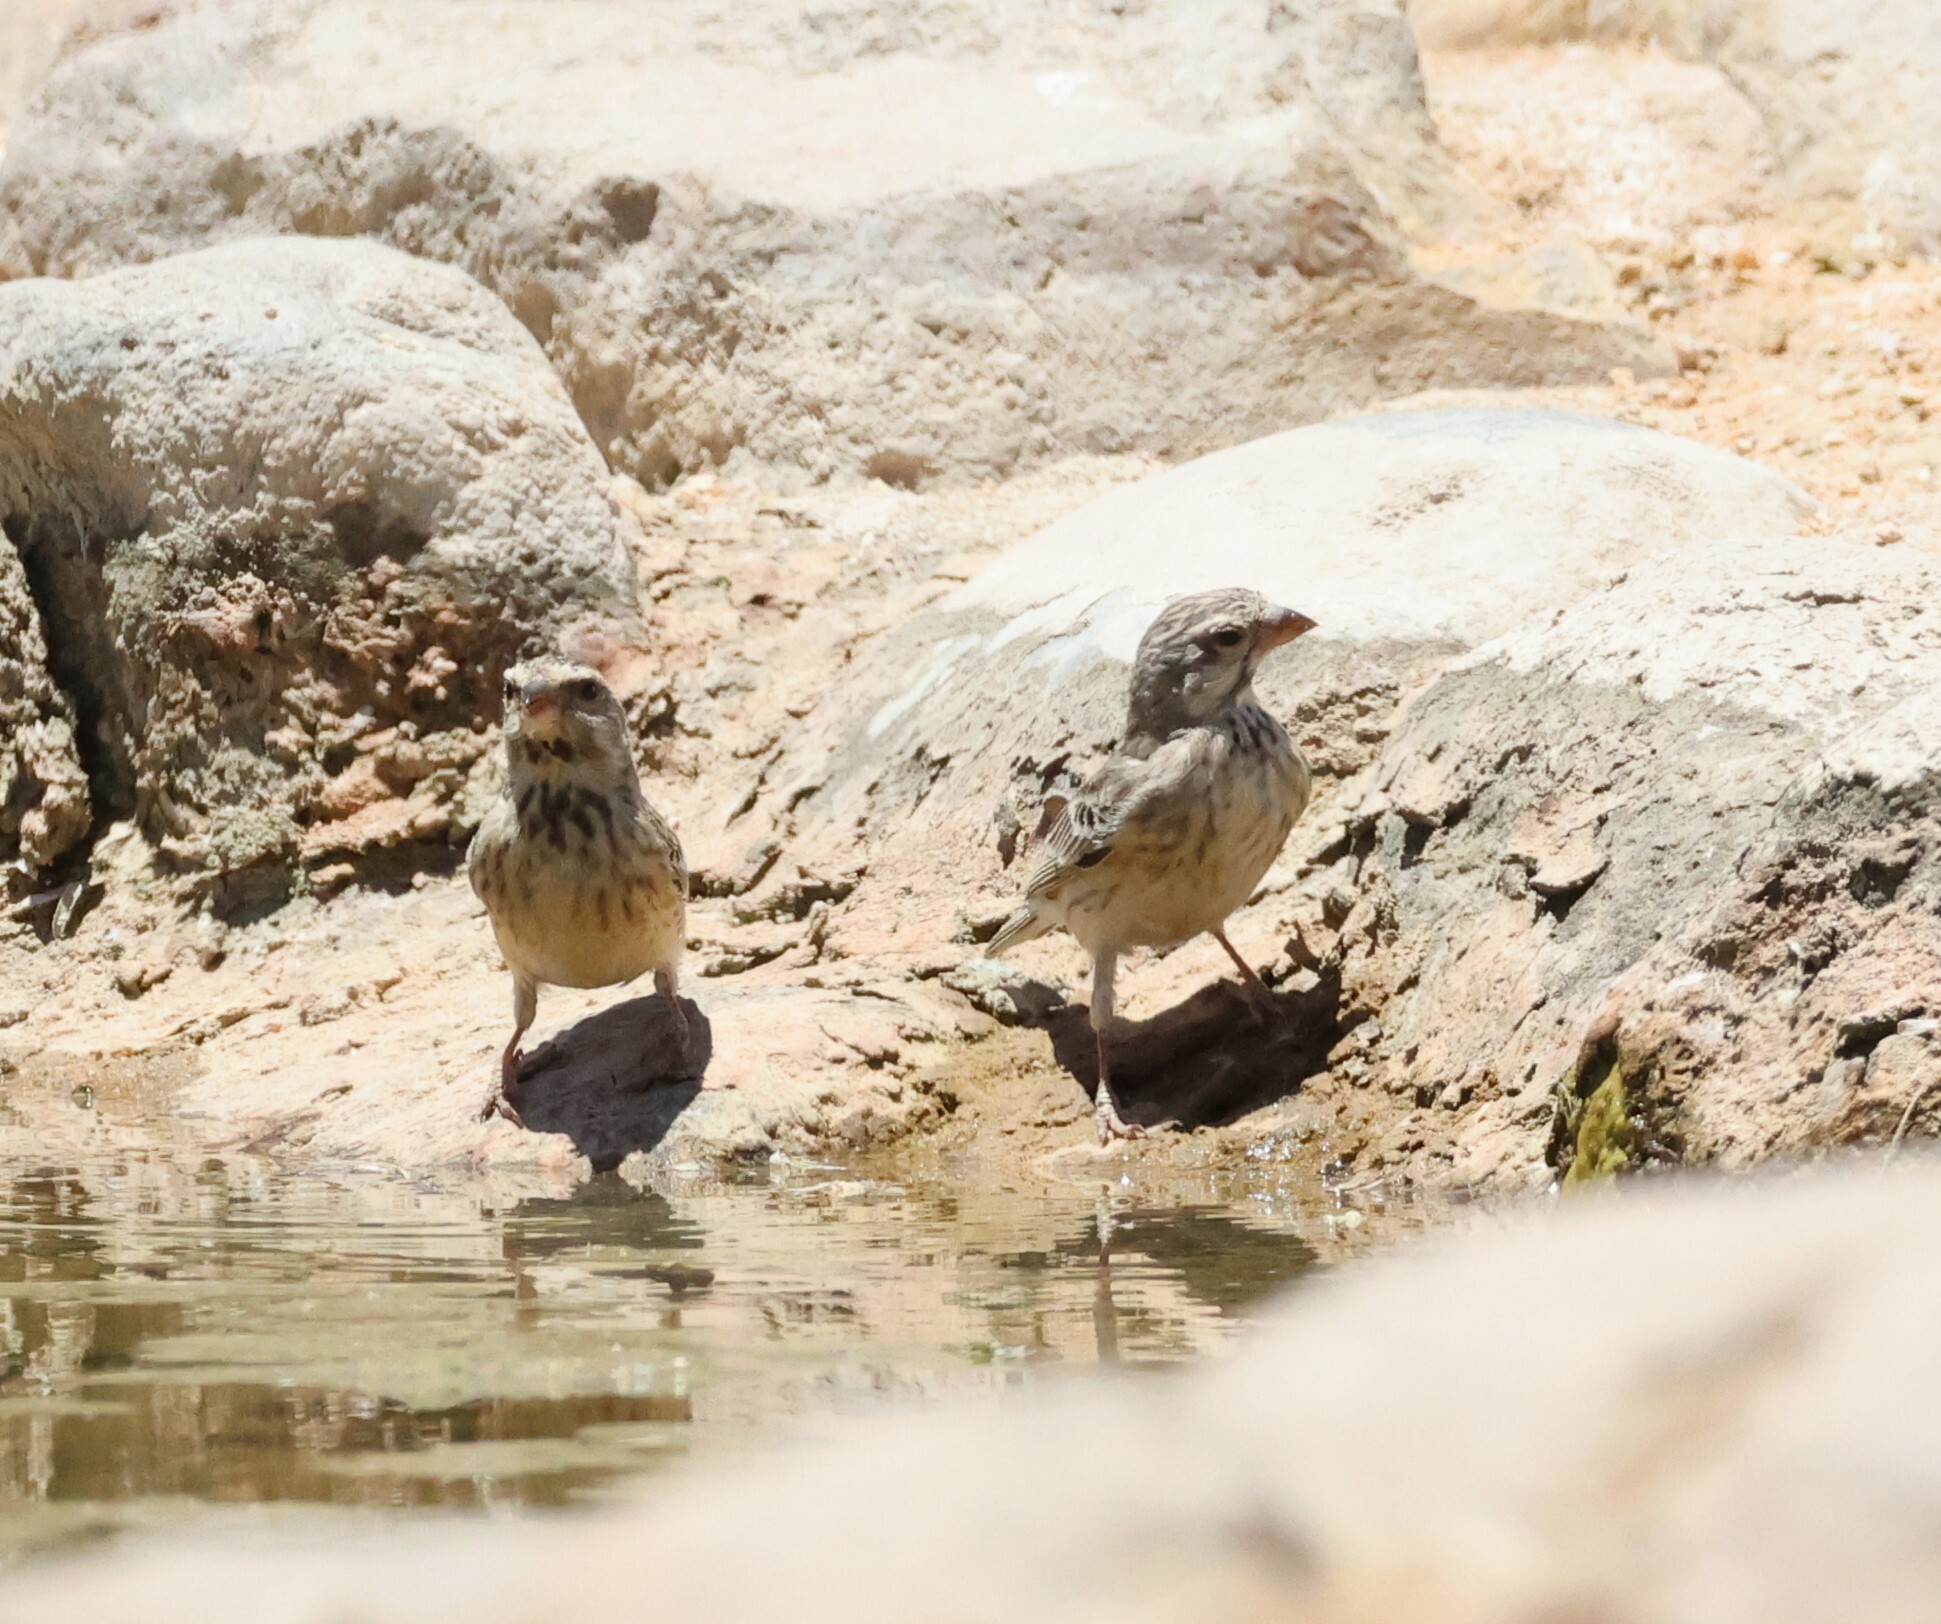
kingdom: Animalia
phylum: Chordata
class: Aves
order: Passeriformes
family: Fringillidae
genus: Crithagra
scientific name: Crithagra atrogularis
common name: Black-throated canary
